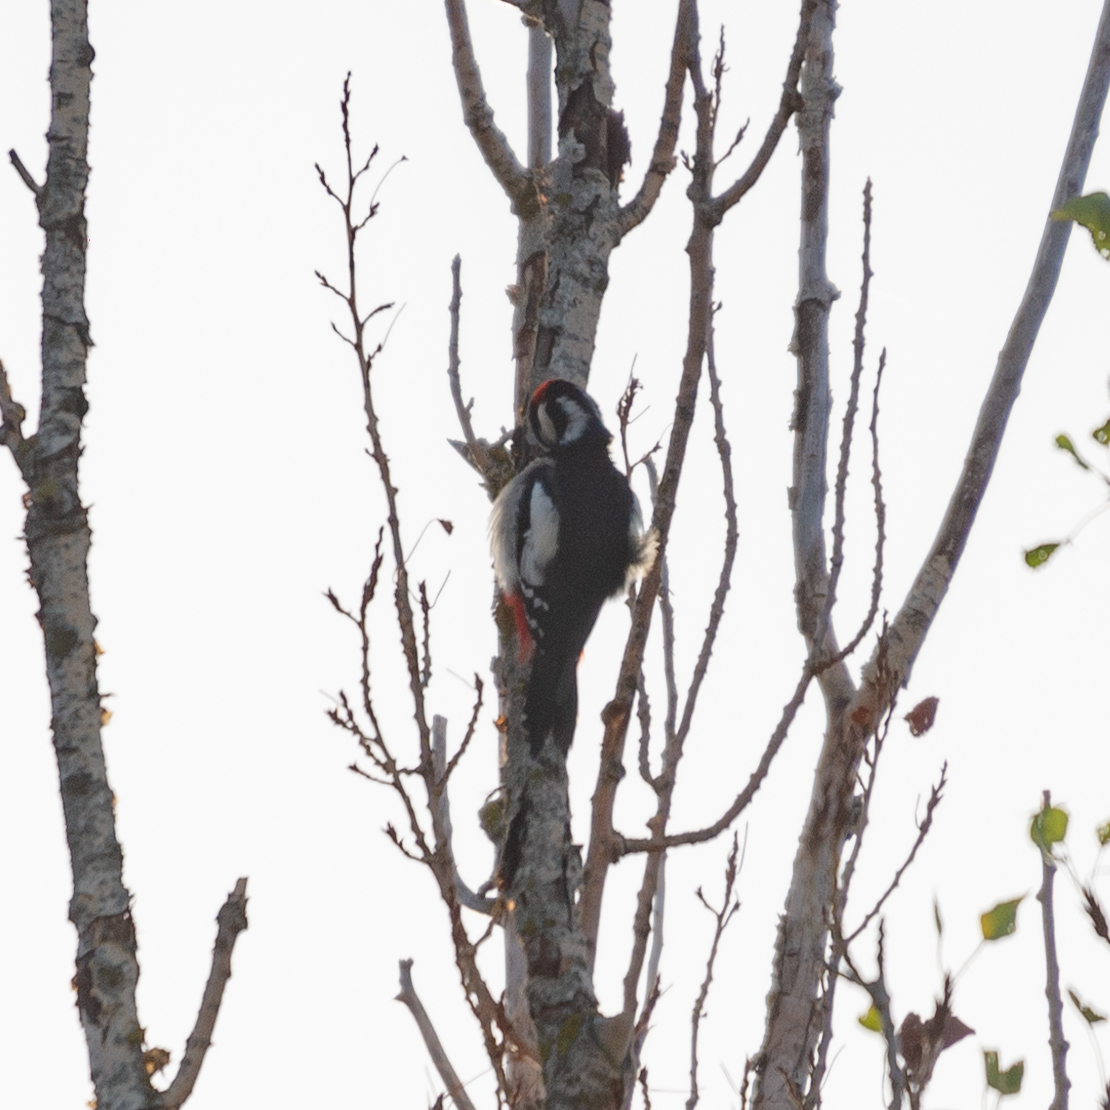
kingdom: Animalia
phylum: Chordata
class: Aves
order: Piciformes
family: Picidae
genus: Dendrocopos
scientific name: Dendrocopos major
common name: Great spotted woodpecker
